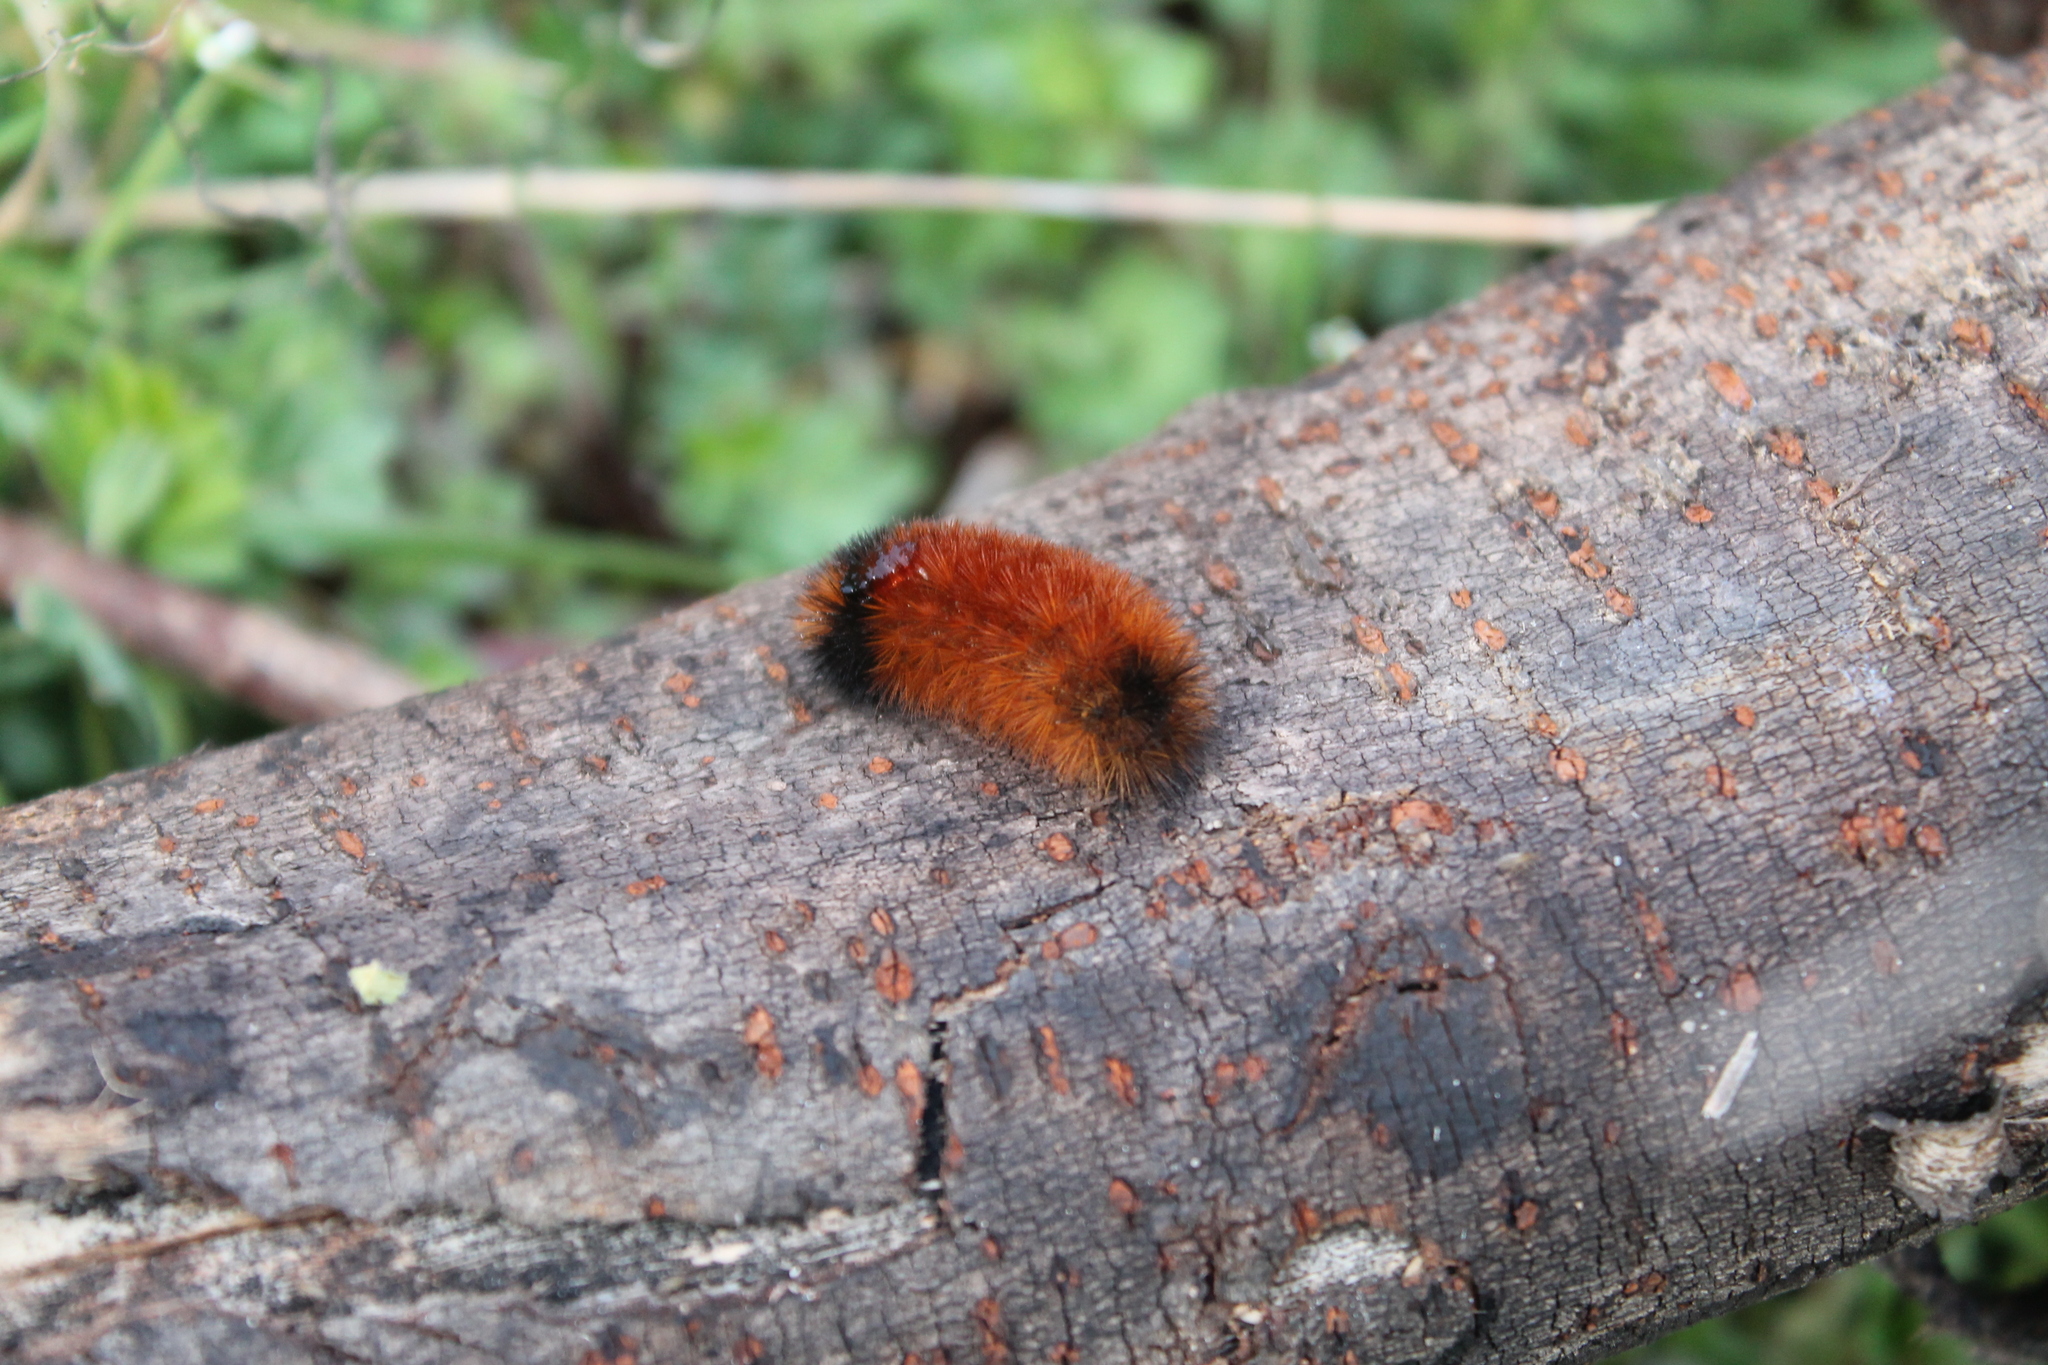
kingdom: Animalia
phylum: Arthropoda
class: Insecta
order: Lepidoptera
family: Erebidae
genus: Pyrrharctia
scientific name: Pyrrharctia isabella
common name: Isabella tiger moth
